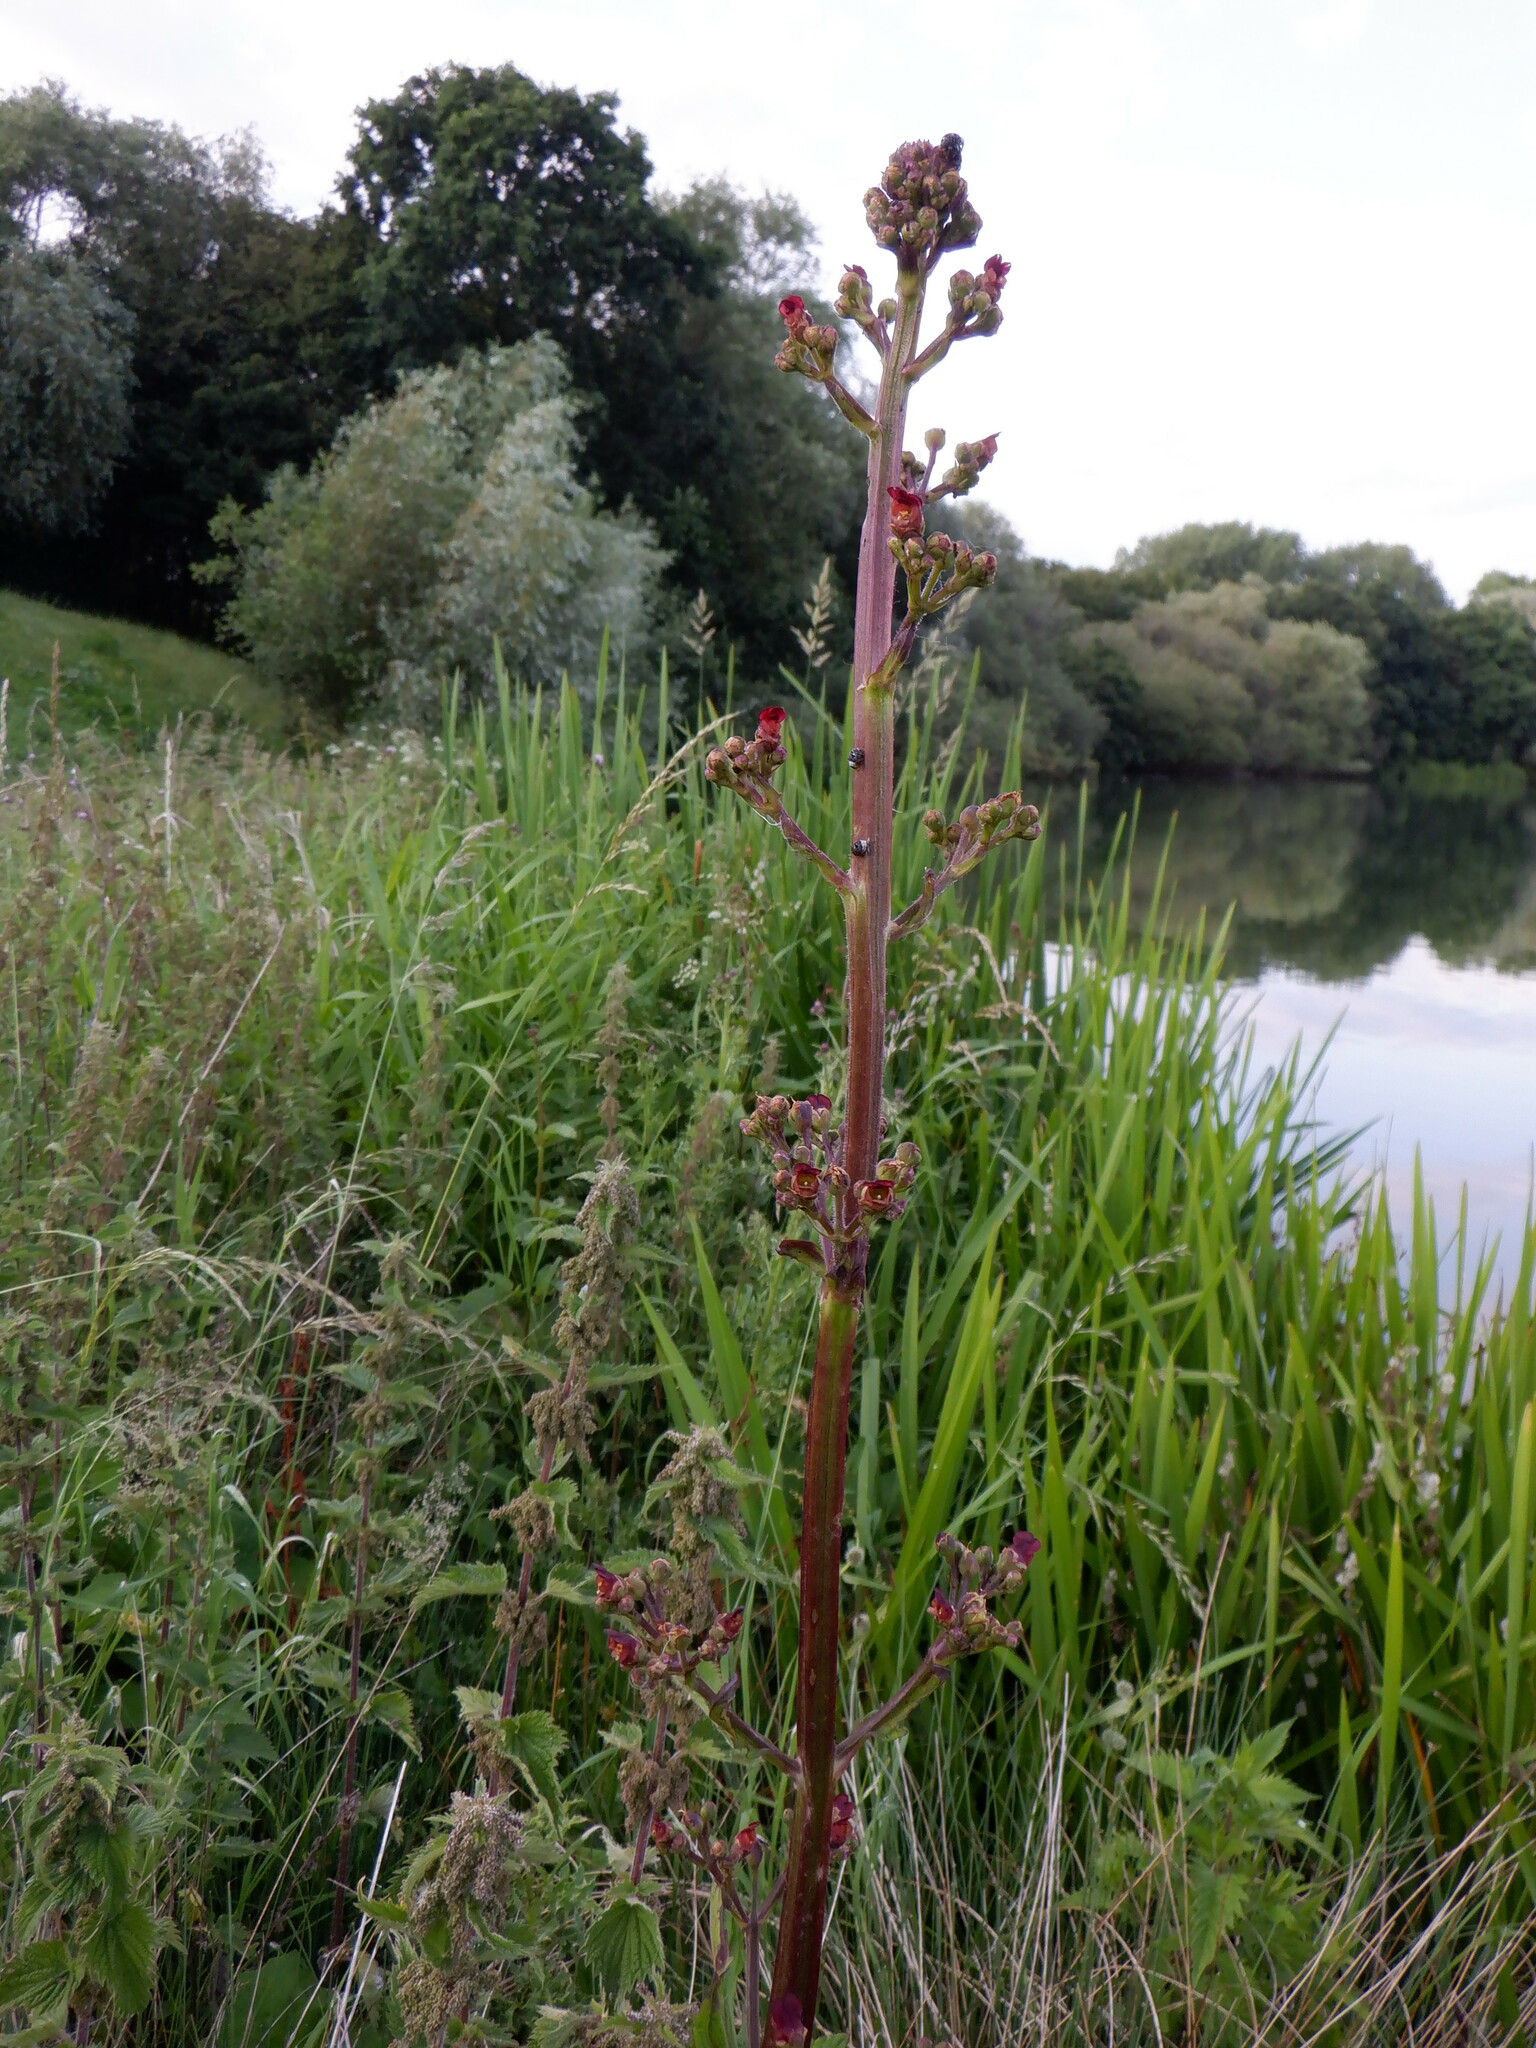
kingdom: Plantae
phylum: Tracheophyta
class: Magnoliopsida
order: Lamiales
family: Scrophulariaceae
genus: Scrophularia
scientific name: Scrophularia auriculata
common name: Water betony
